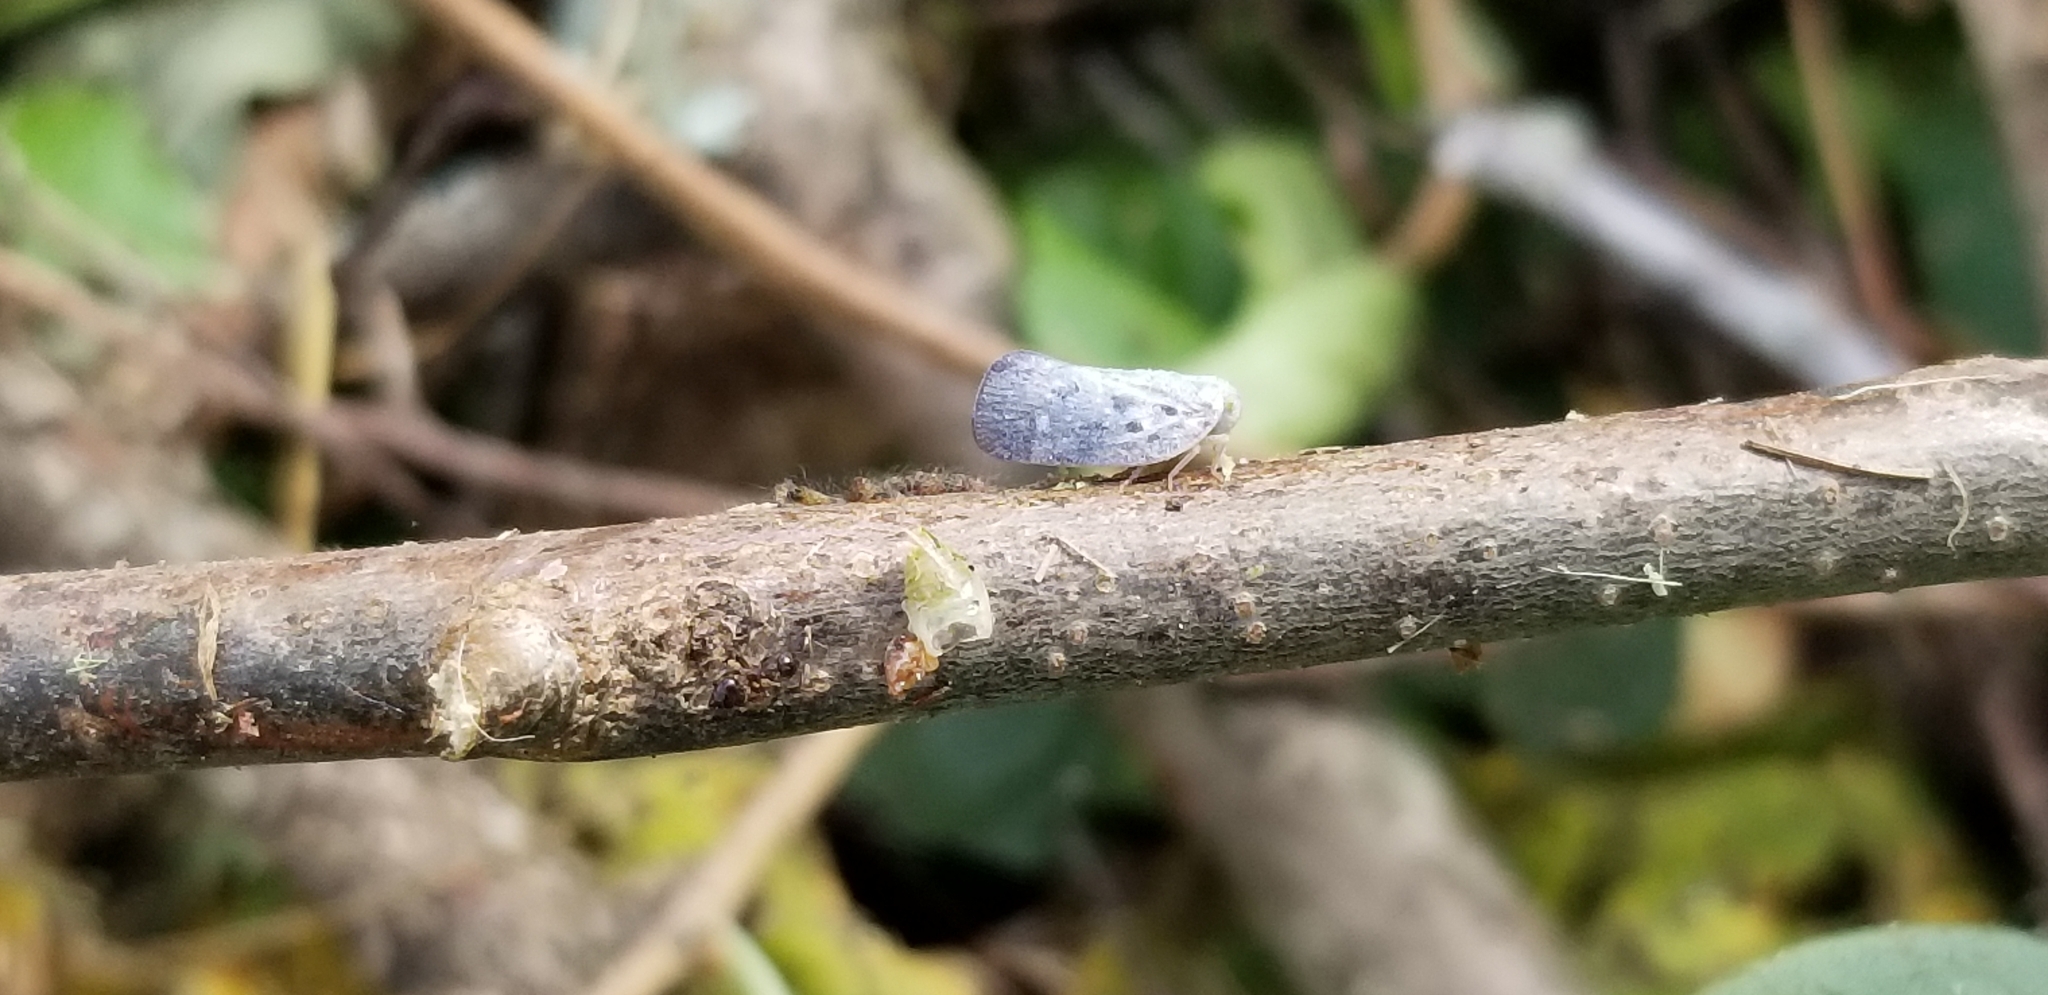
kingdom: Animalia
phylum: Arthropoda
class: Insecta
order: Hemiptera
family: Flatidae
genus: Metcalfa
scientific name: Metcalfa pruinosa
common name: Citrus flatid planthopper
